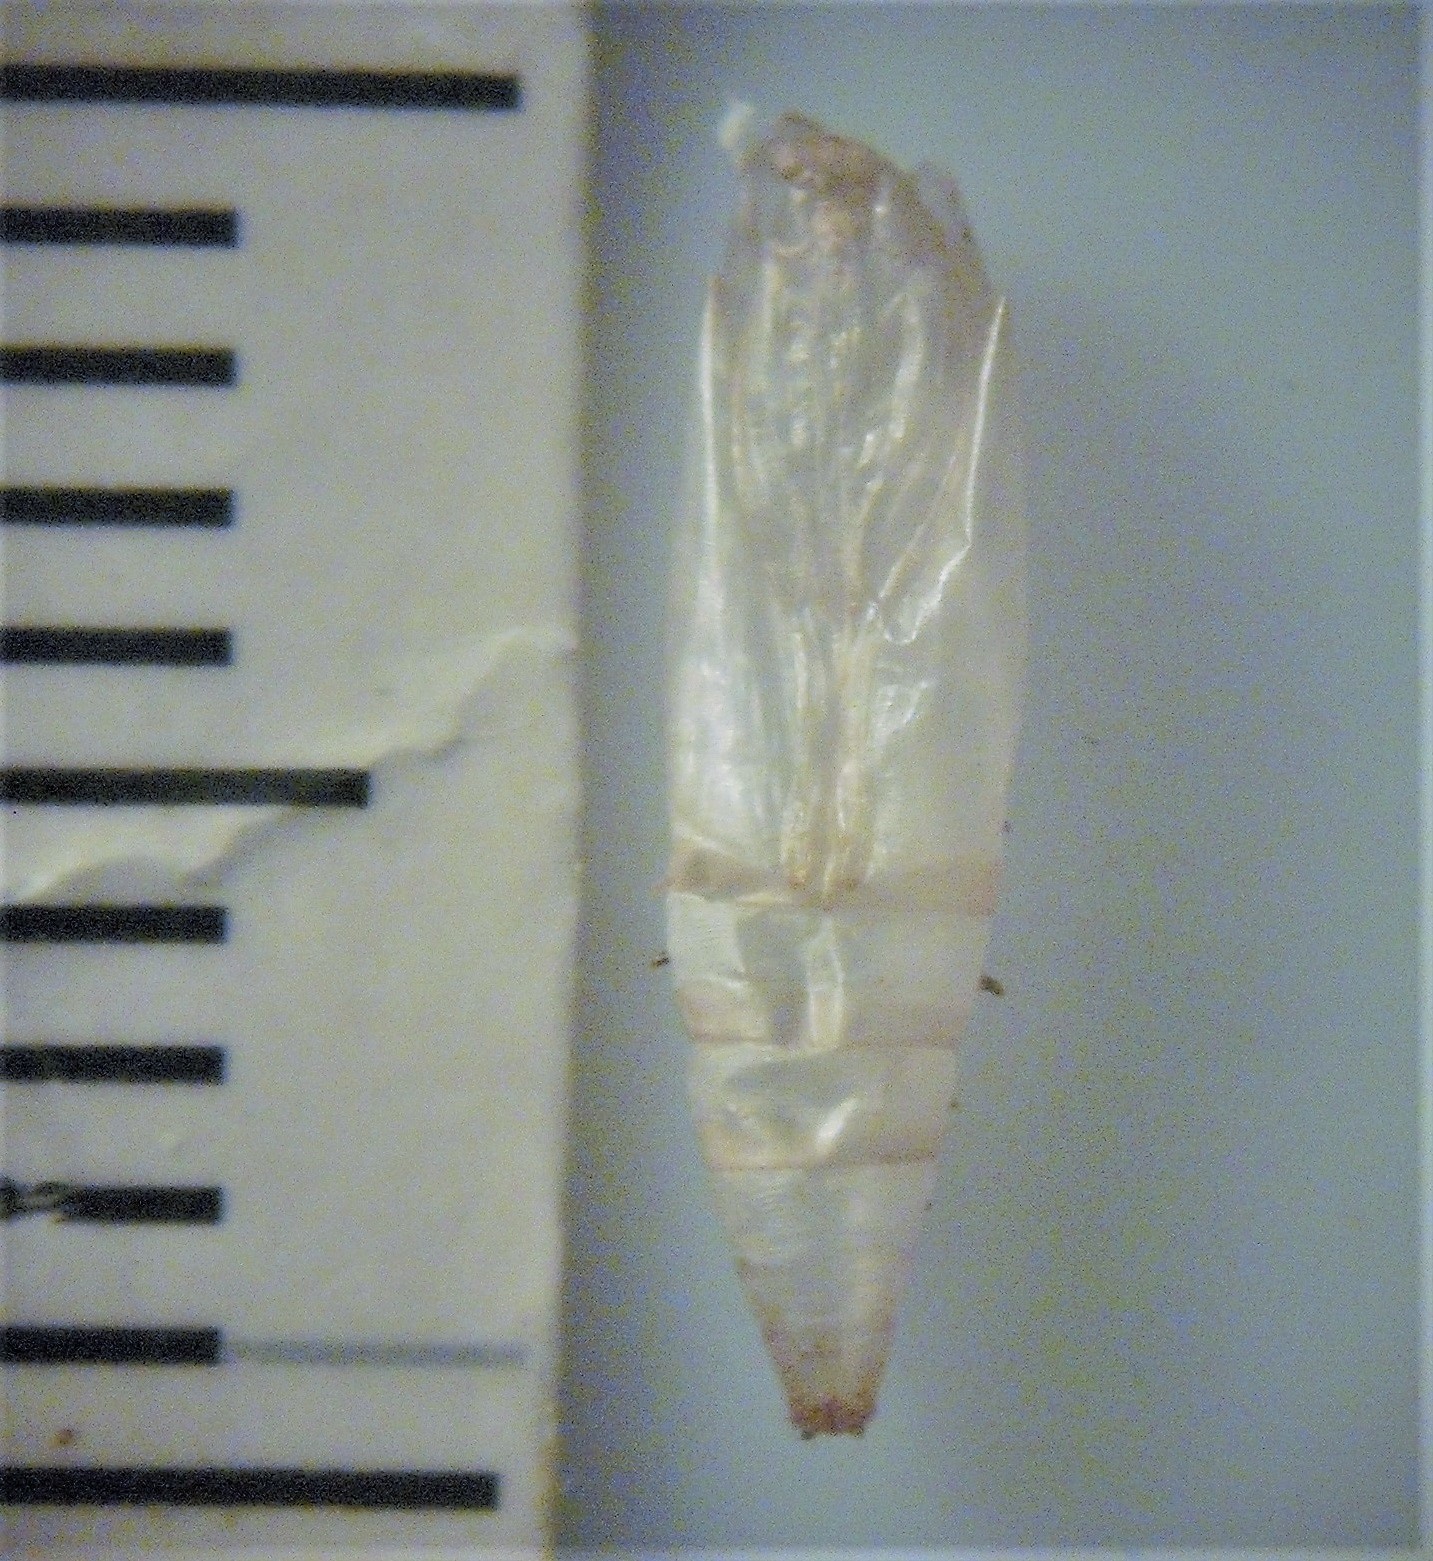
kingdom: Animalia
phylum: Arthropoda
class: Insecta
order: Lepidoptera
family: Plutellidae
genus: Doxophyrtis
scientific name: Doxophyrtis hydrocosma
